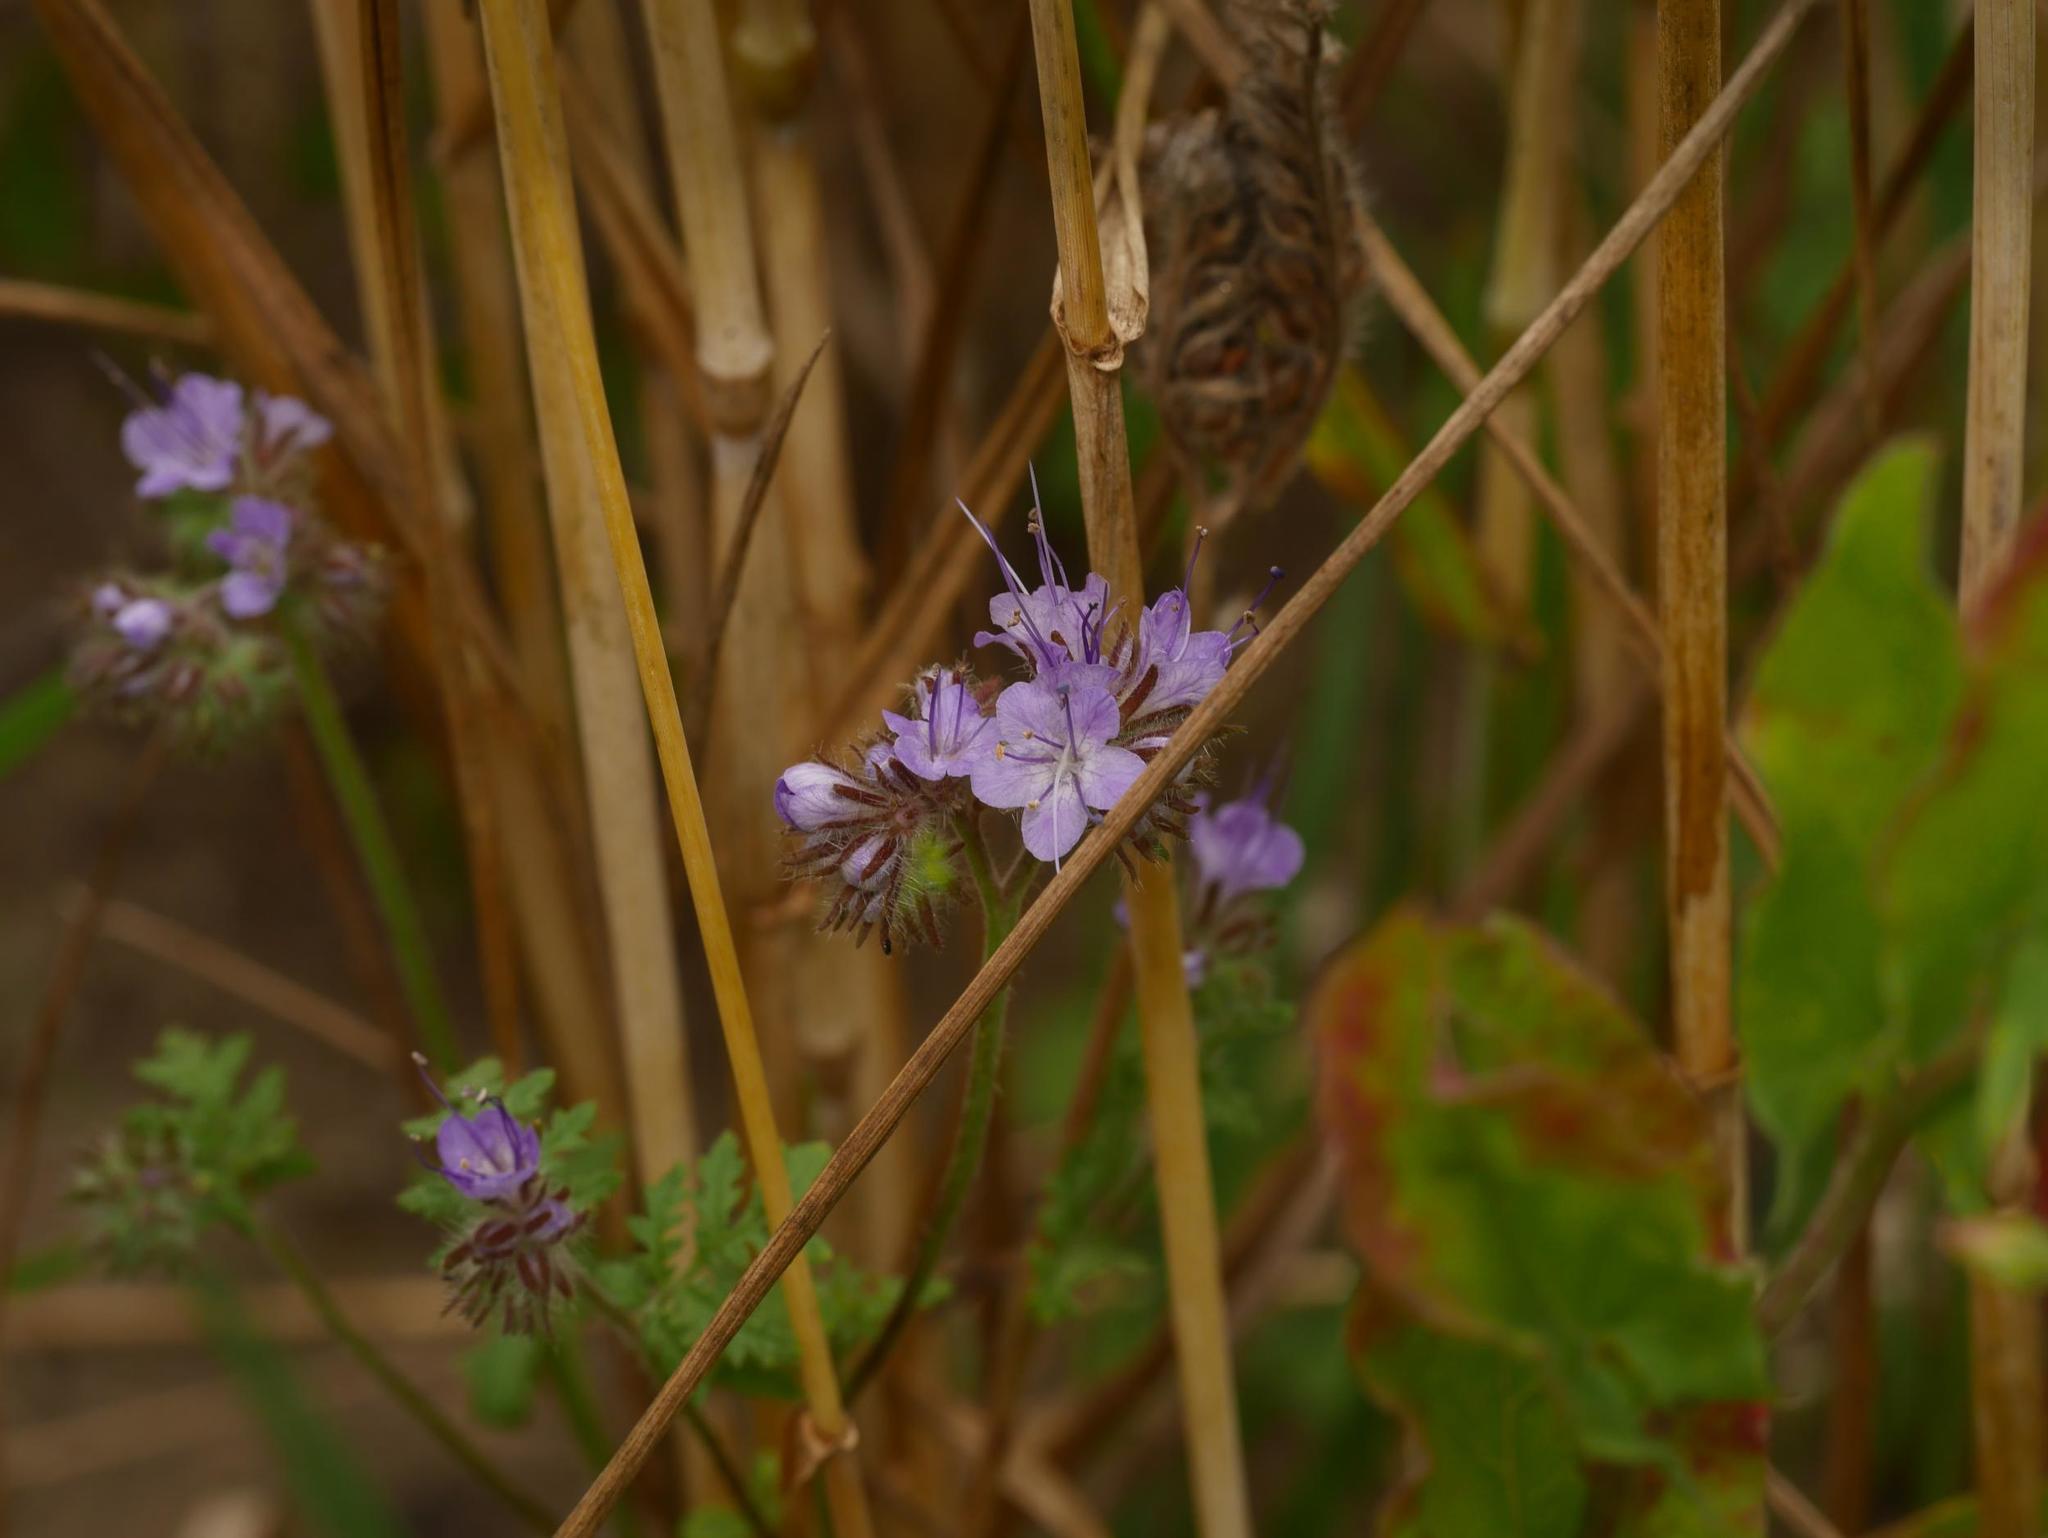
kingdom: Plantae
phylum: Tracheophyta
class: Magnoliopsida
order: Boraginales
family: Hydrophyllaceae
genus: Phacelia
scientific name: Phacelia tanacetifolia
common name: Phacelia
